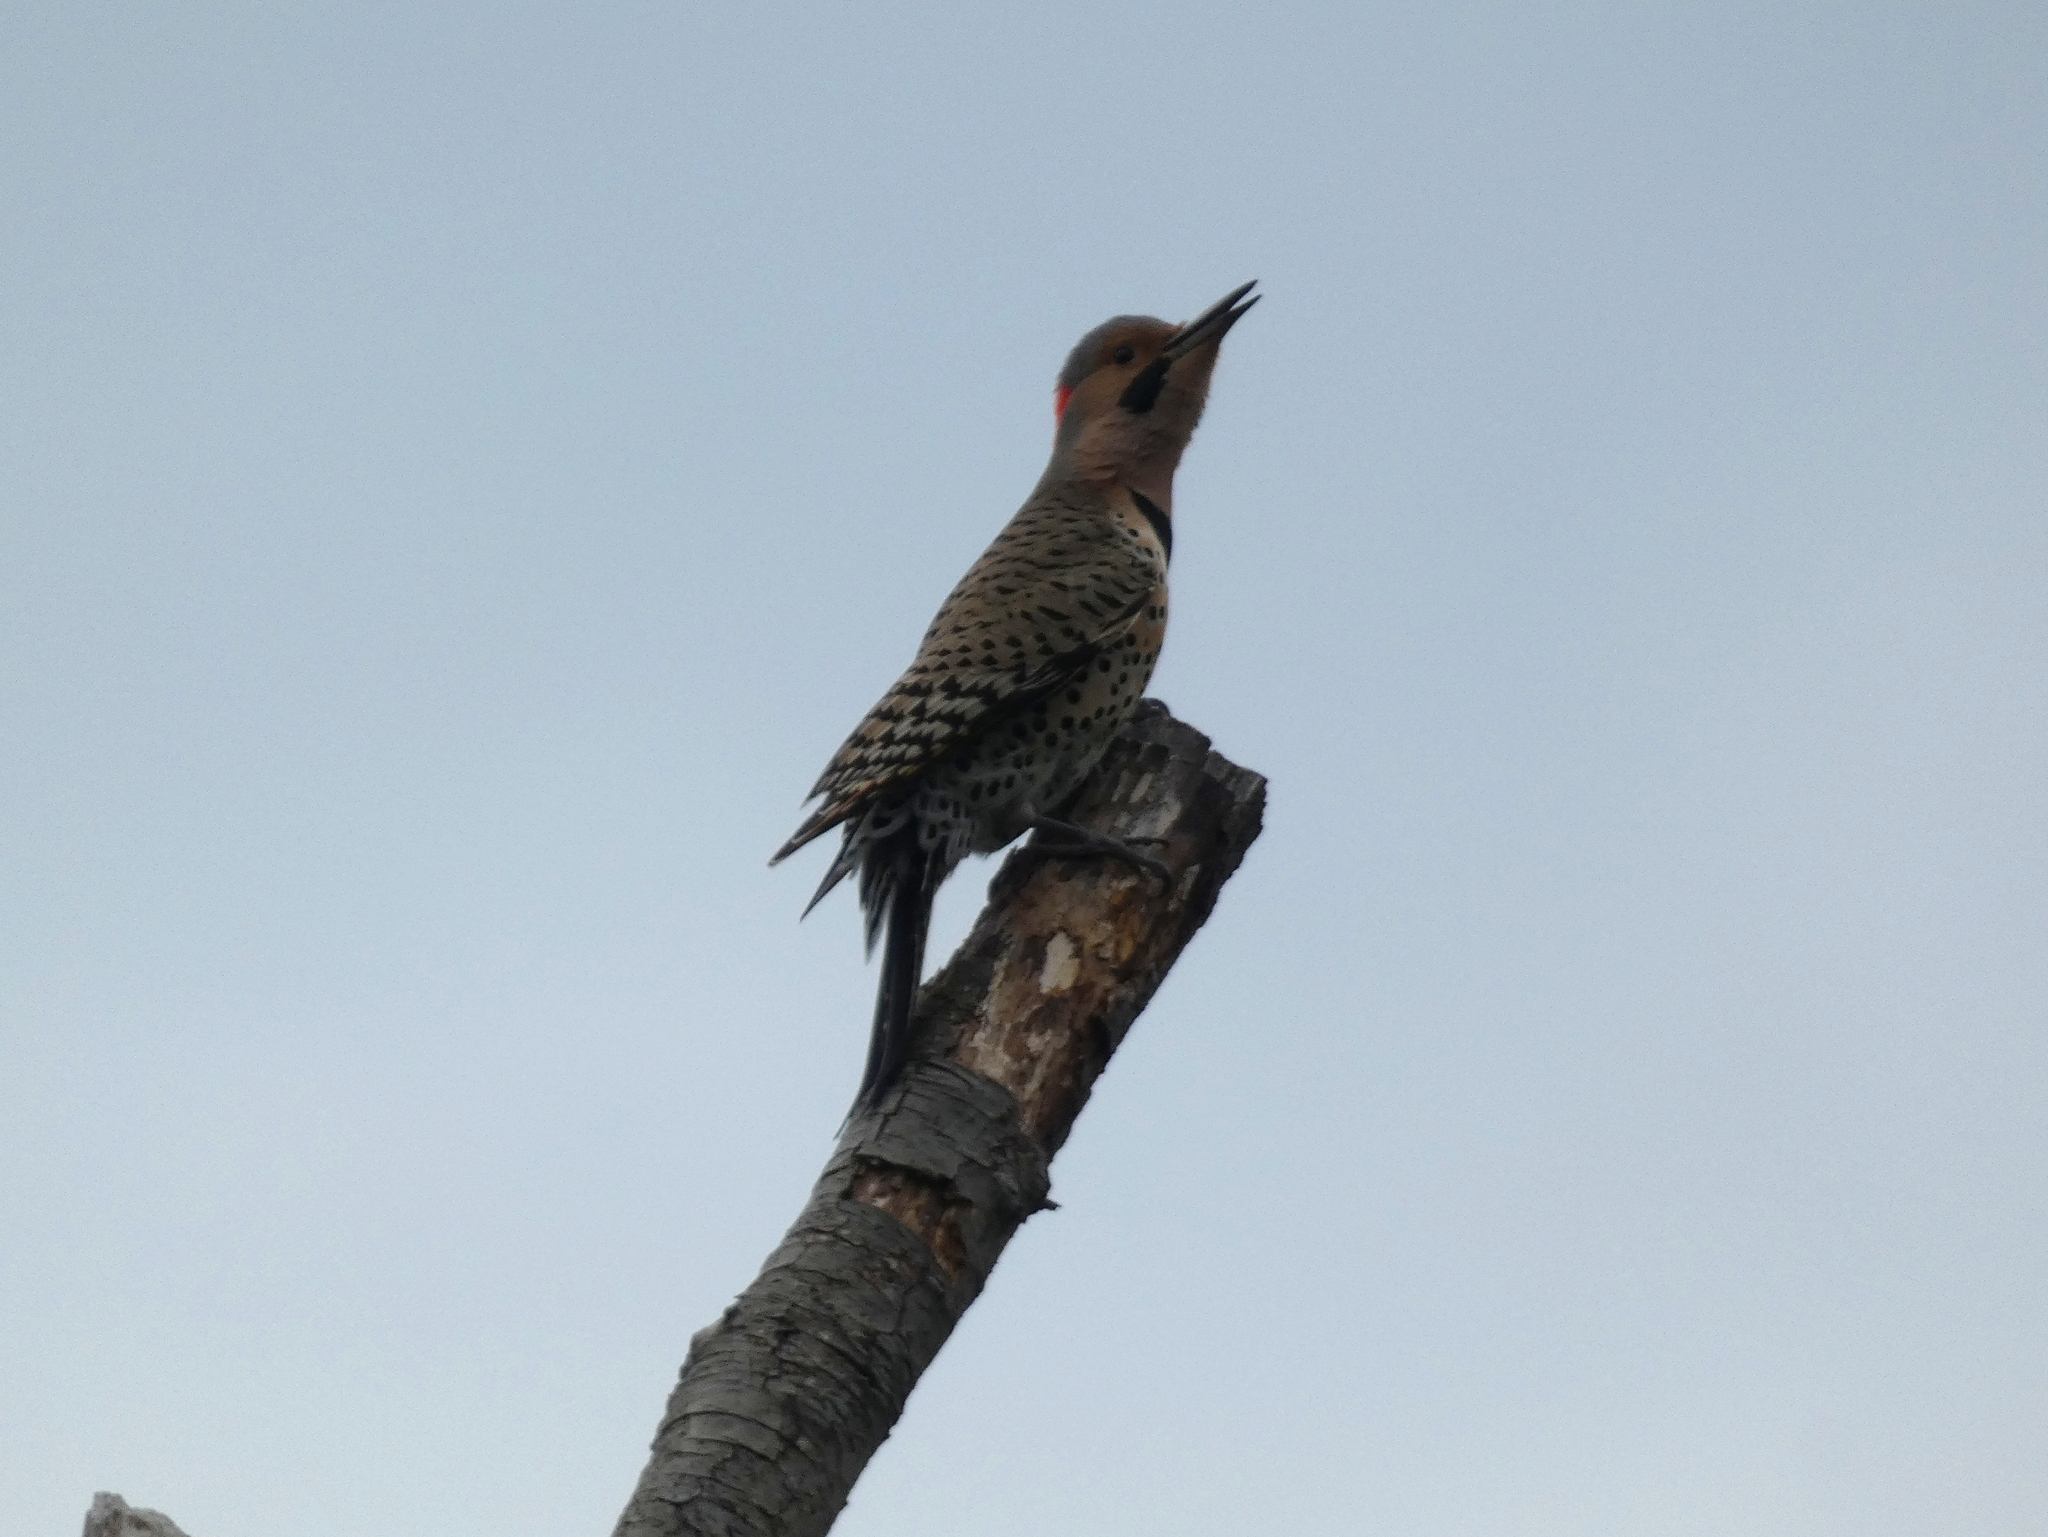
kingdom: Animalia
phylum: Chordata
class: Aves
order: Piciformes
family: Picidae
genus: Colaptes
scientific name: Colaptes auratus
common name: Northern flicker
